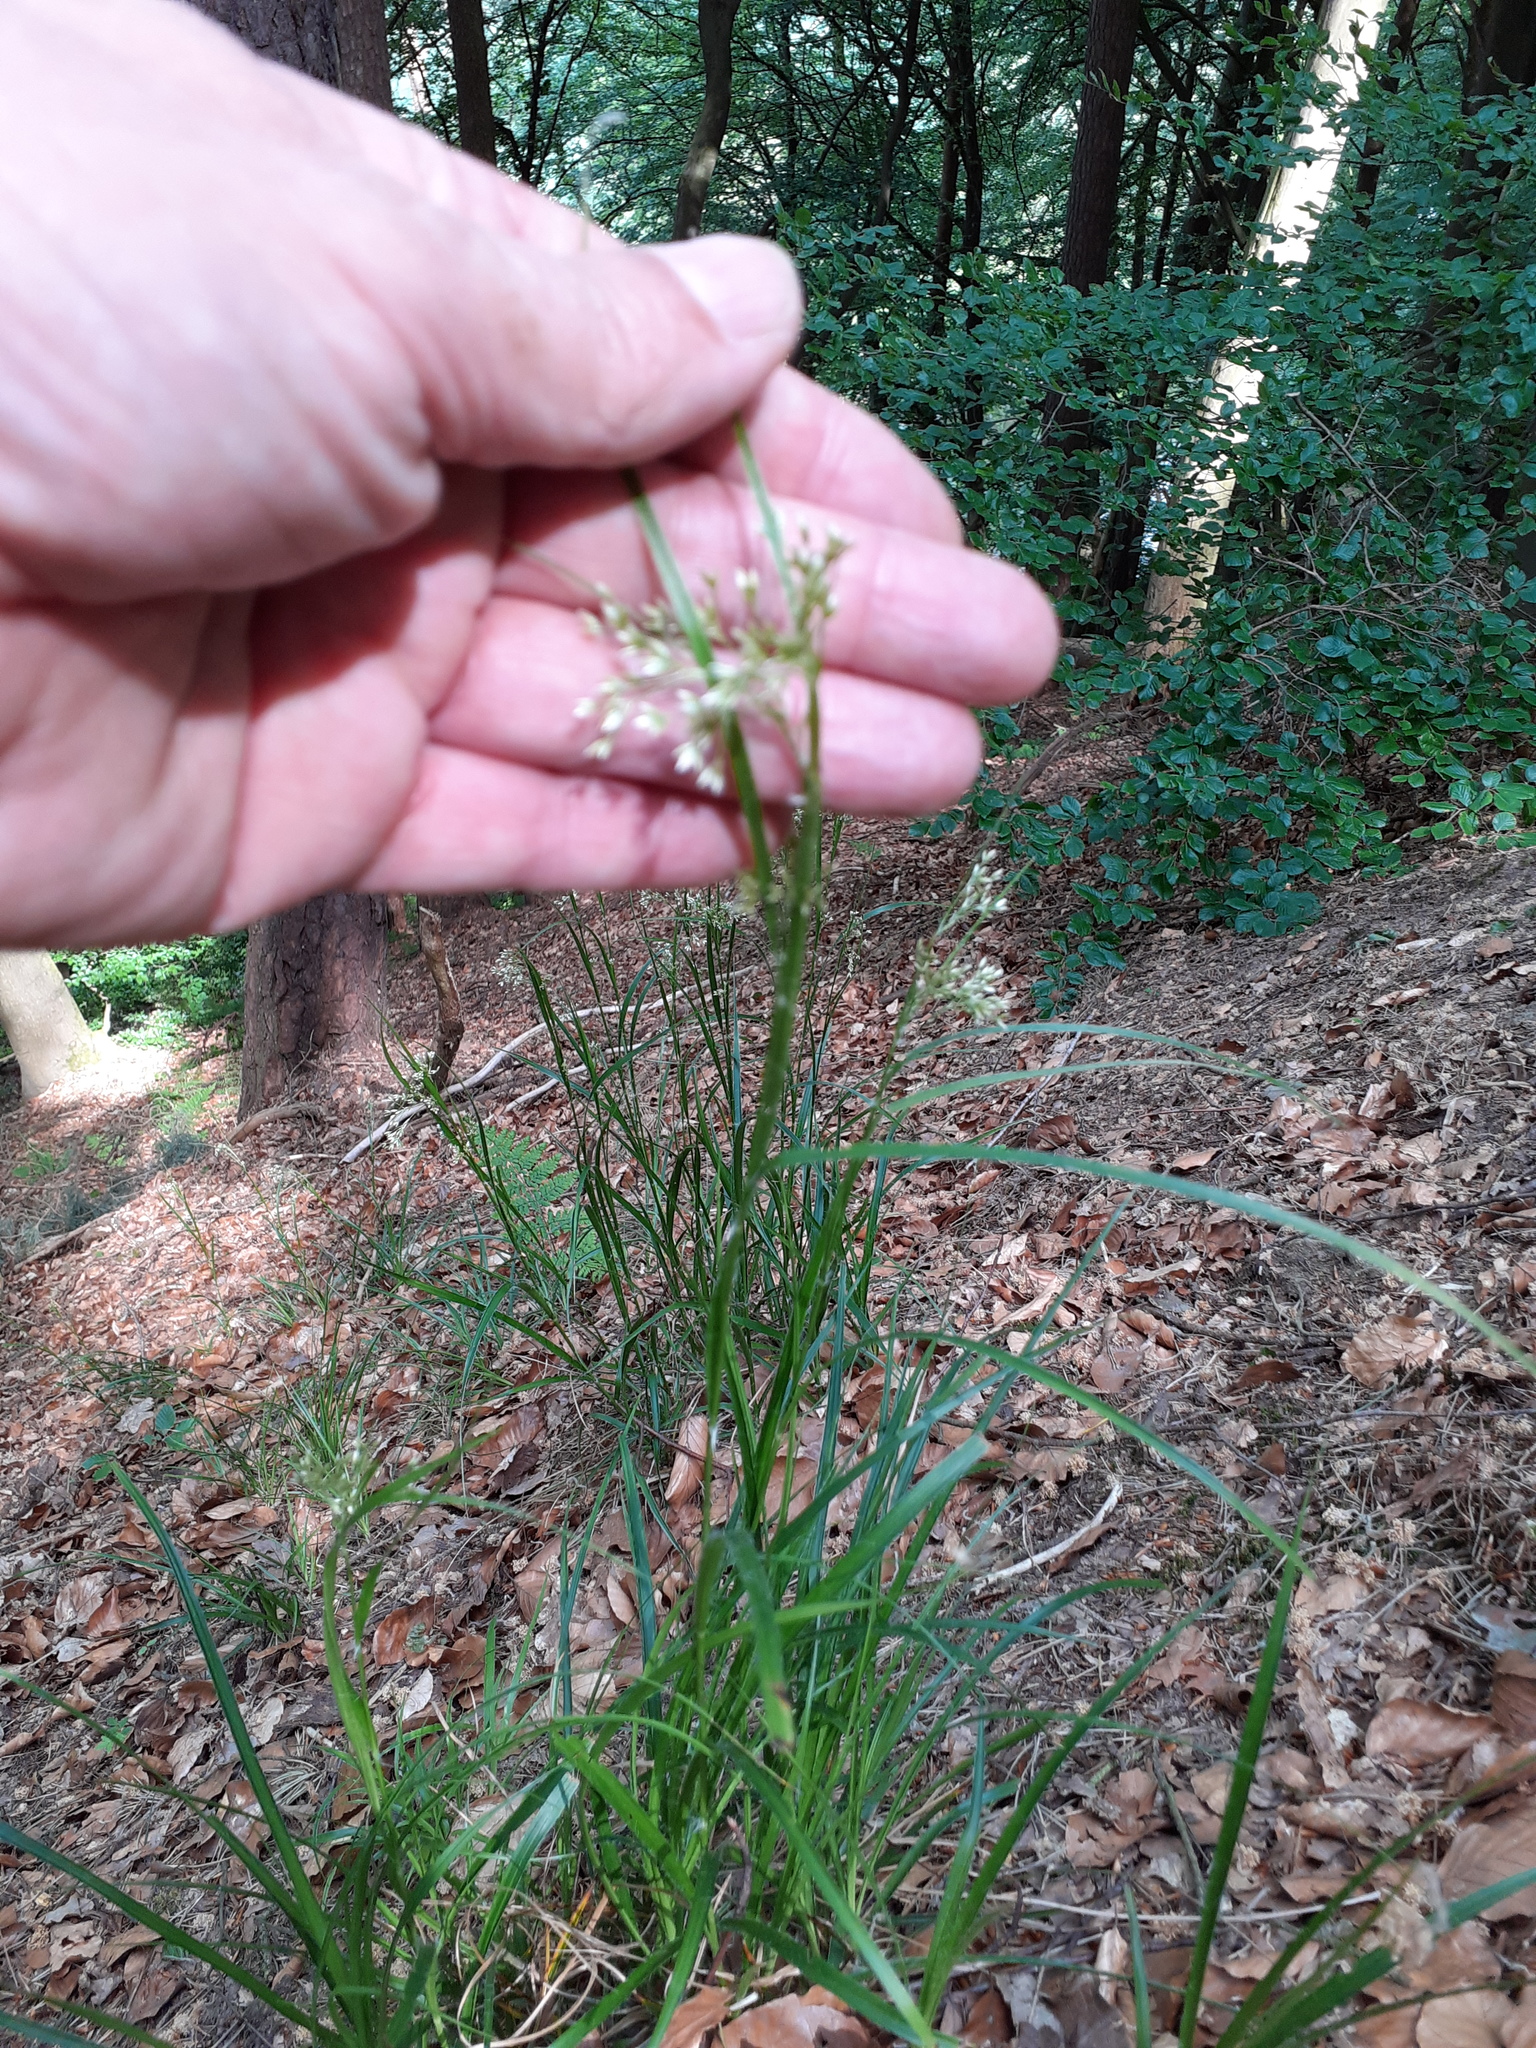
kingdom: Plantae
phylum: Tracheophyta
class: Liliopsida
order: Poales
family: Juncaceae
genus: Luzula
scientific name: Luzula luzuloides
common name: White wood-rush
